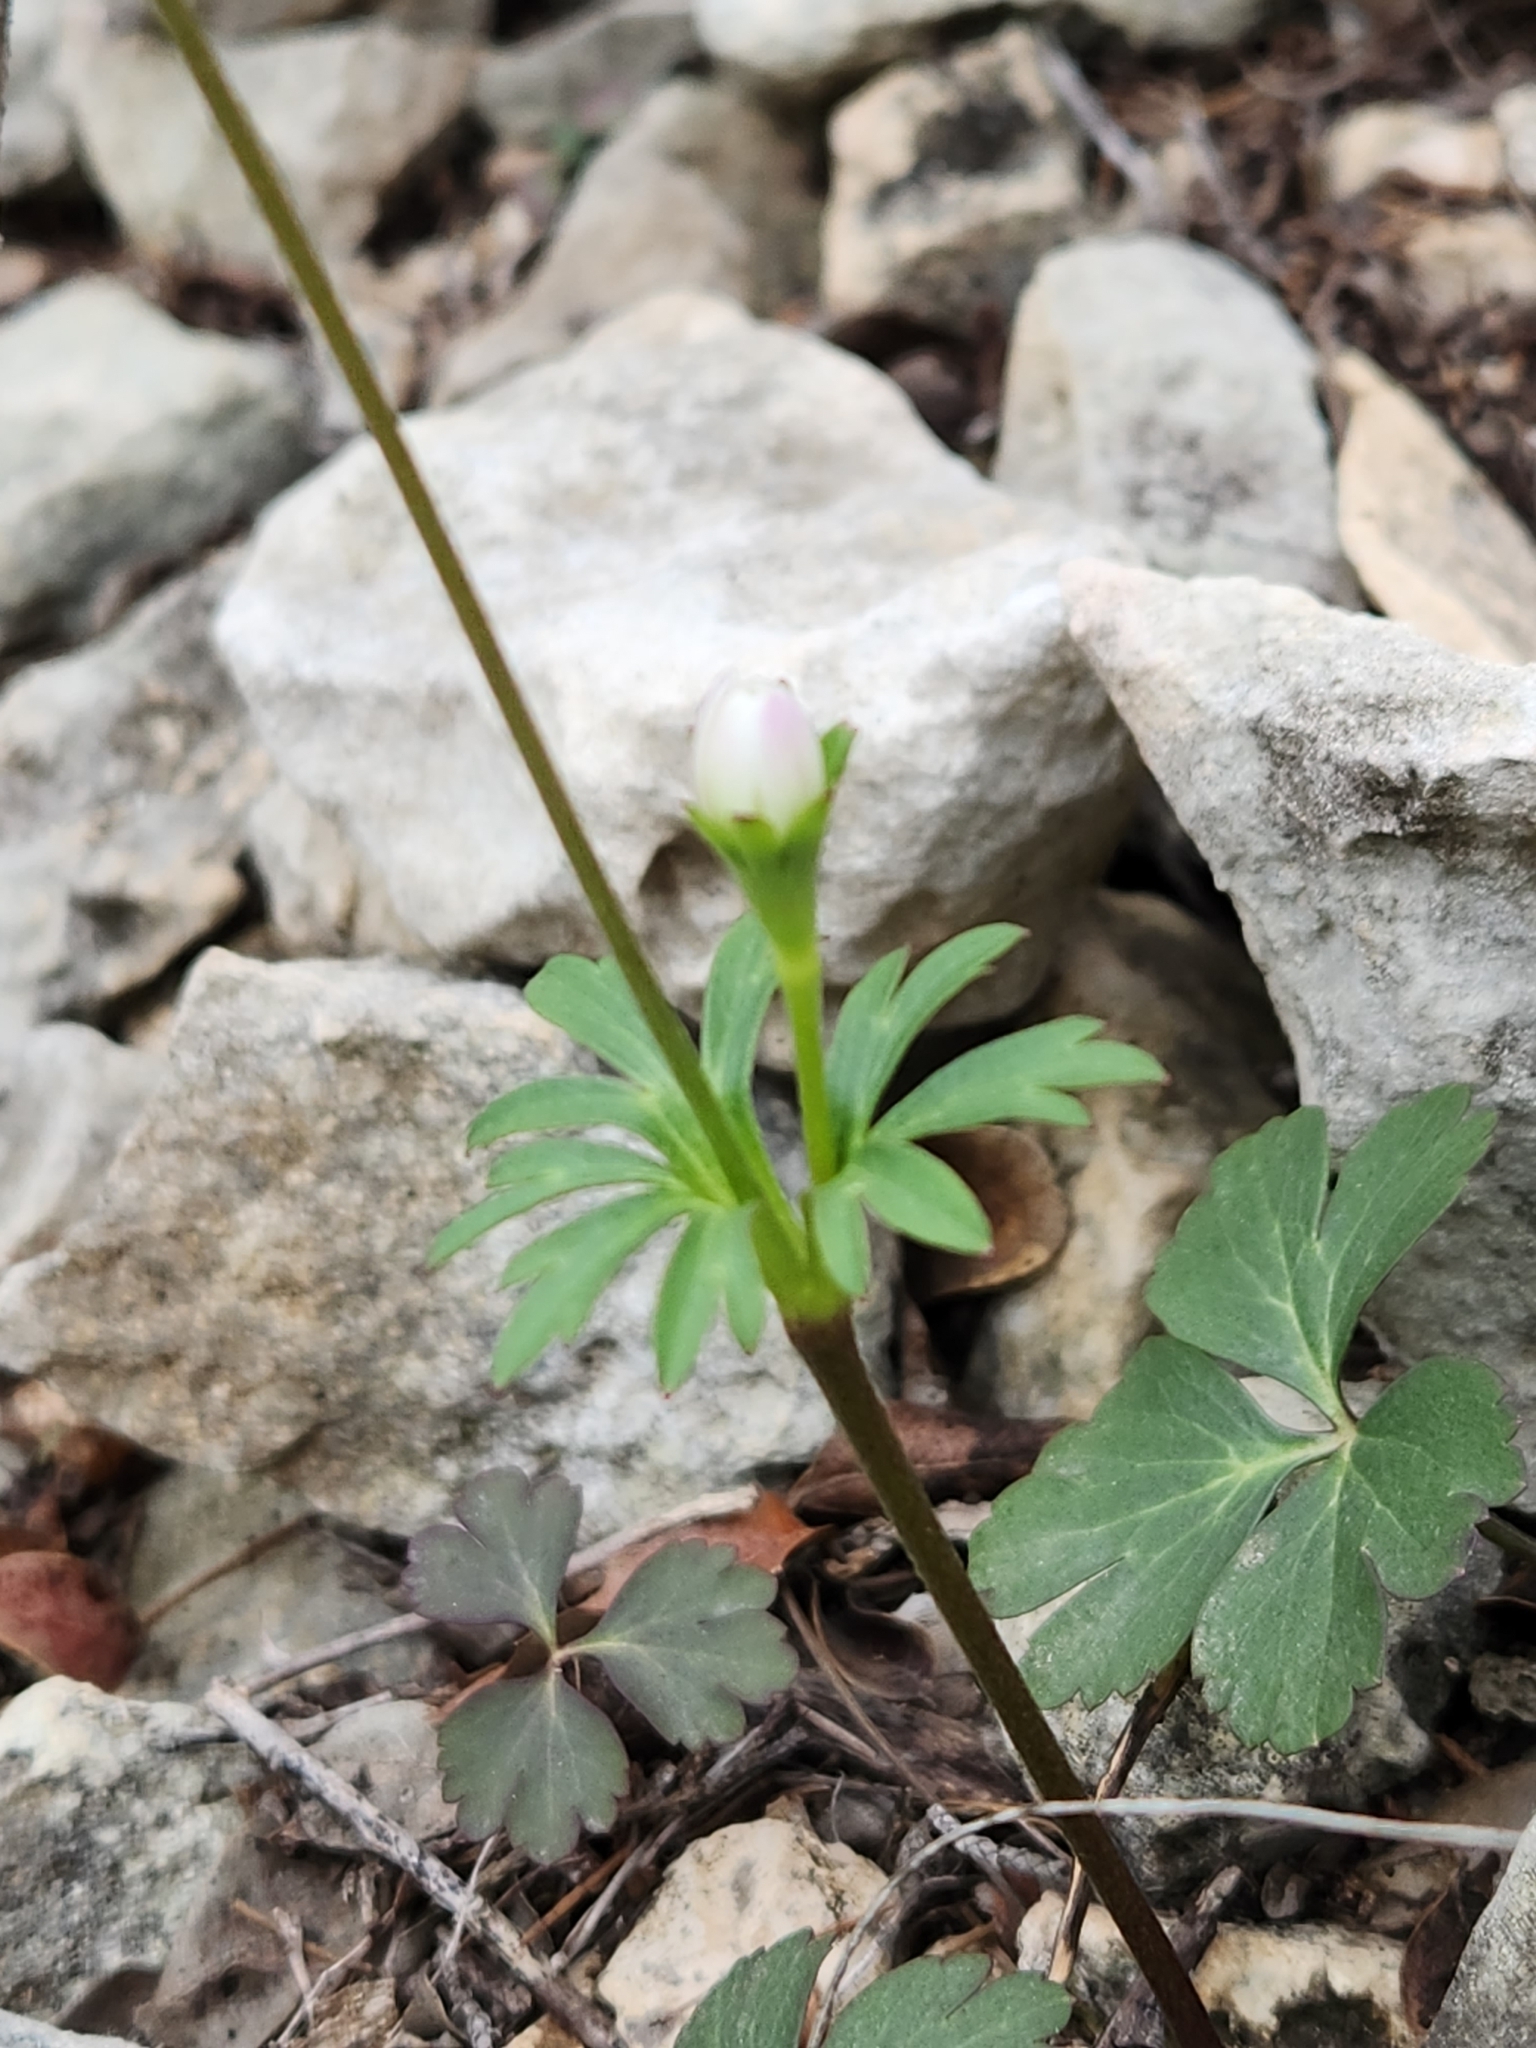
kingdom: Plantae
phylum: Tracheophyta
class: Magnoliopsida
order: Ranunculales
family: Ranunculaceae
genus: Anemone
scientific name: Anemone edwardsiana
